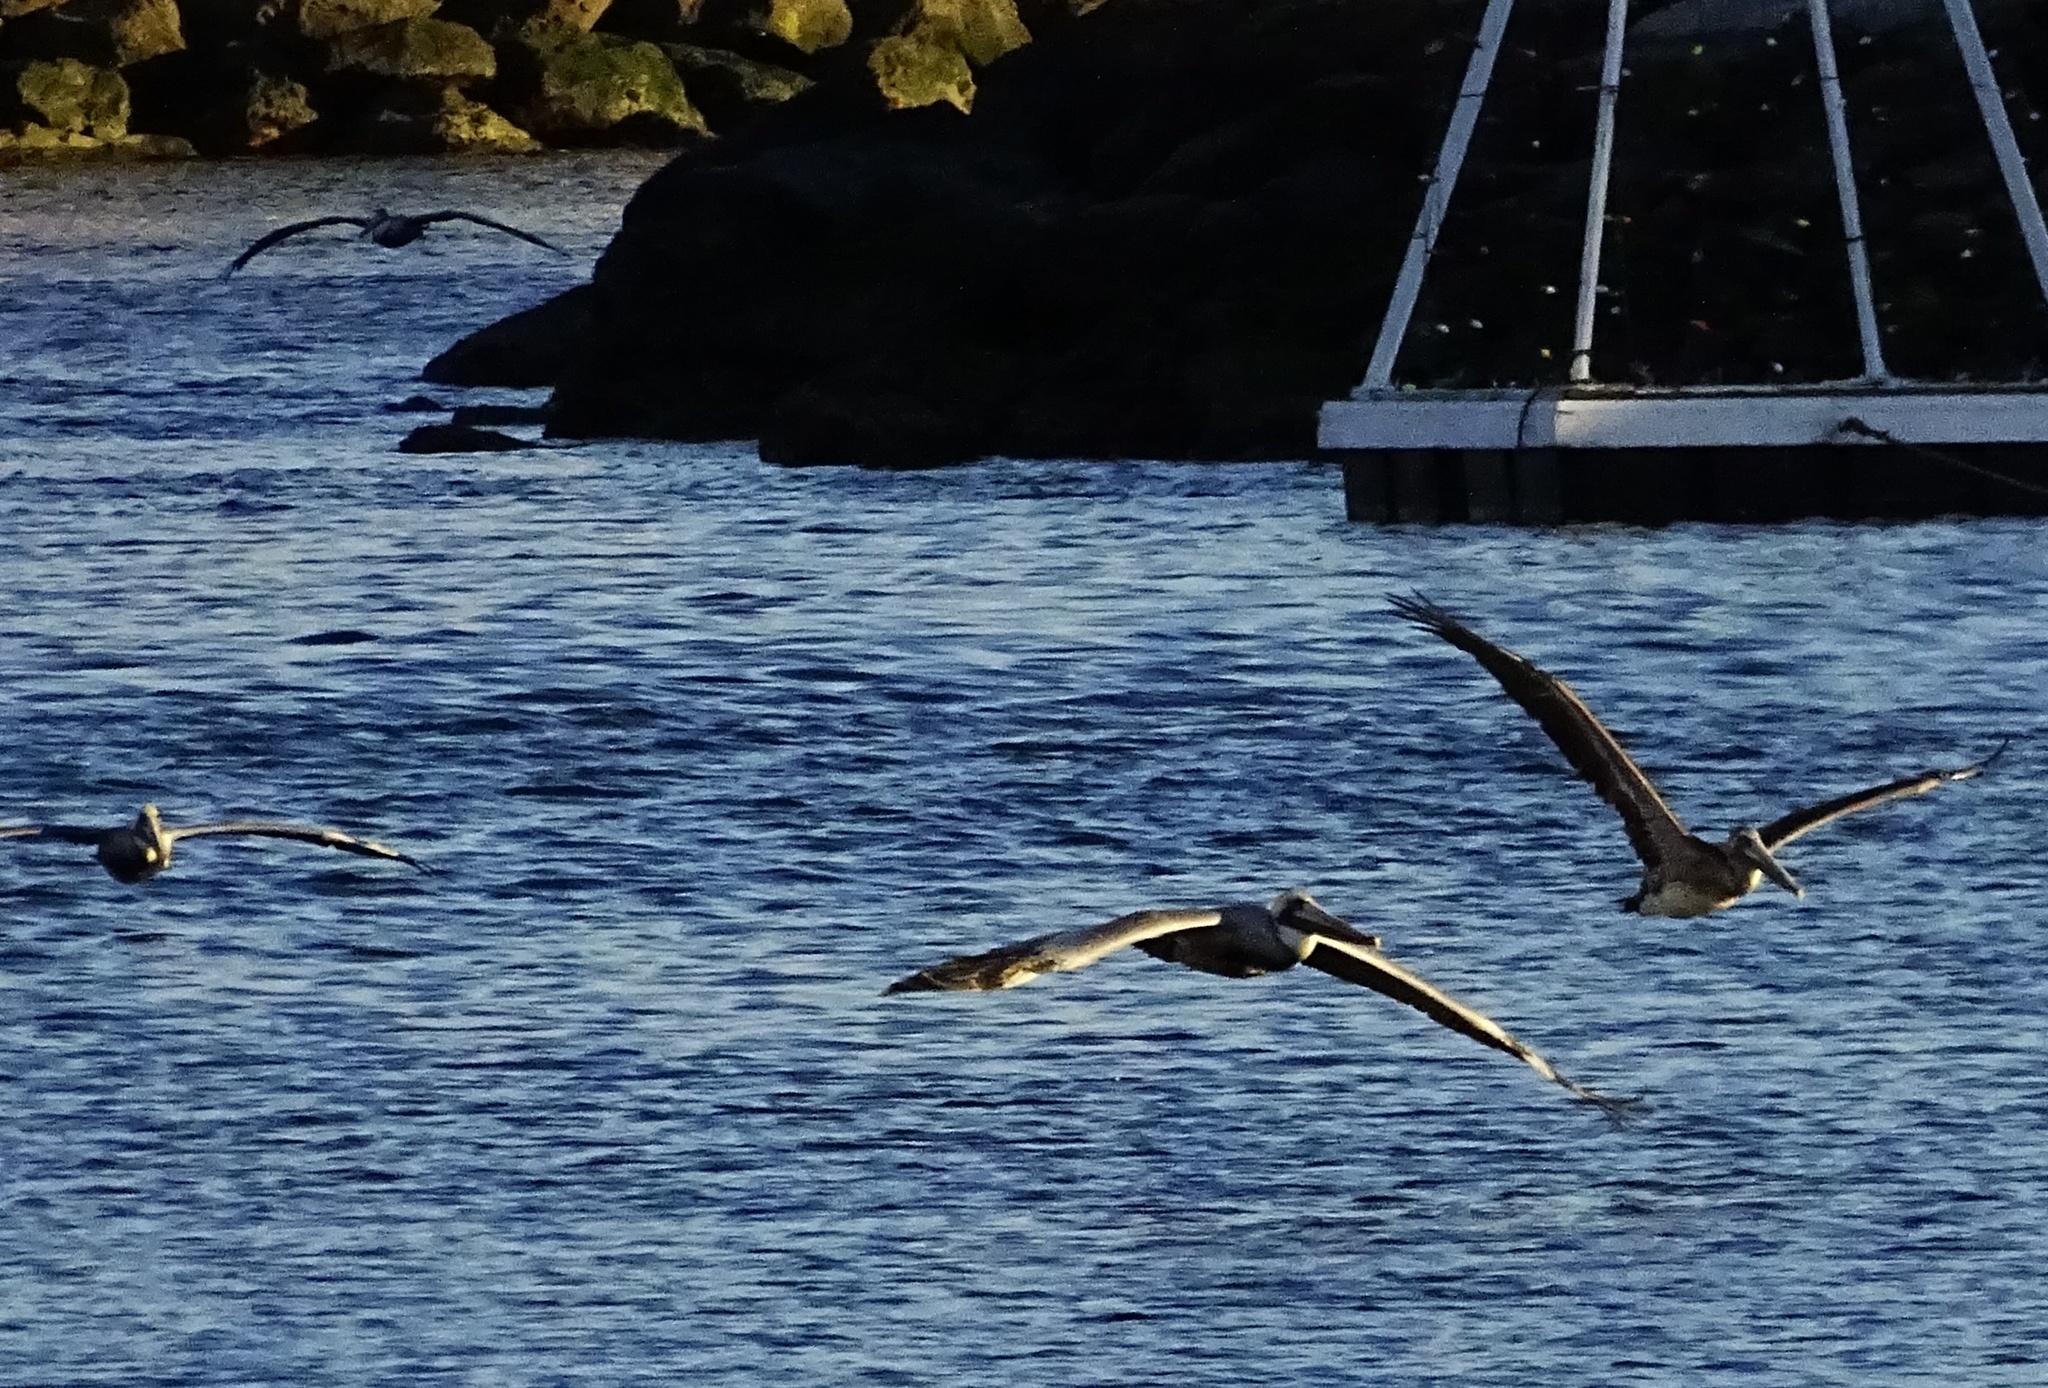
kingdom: Animalia
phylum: Chordata
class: Aves
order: Pelecaniformes
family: Pelecanidae
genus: Pelecanus
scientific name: Pelecanus occidentalis
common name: Brown pelican
